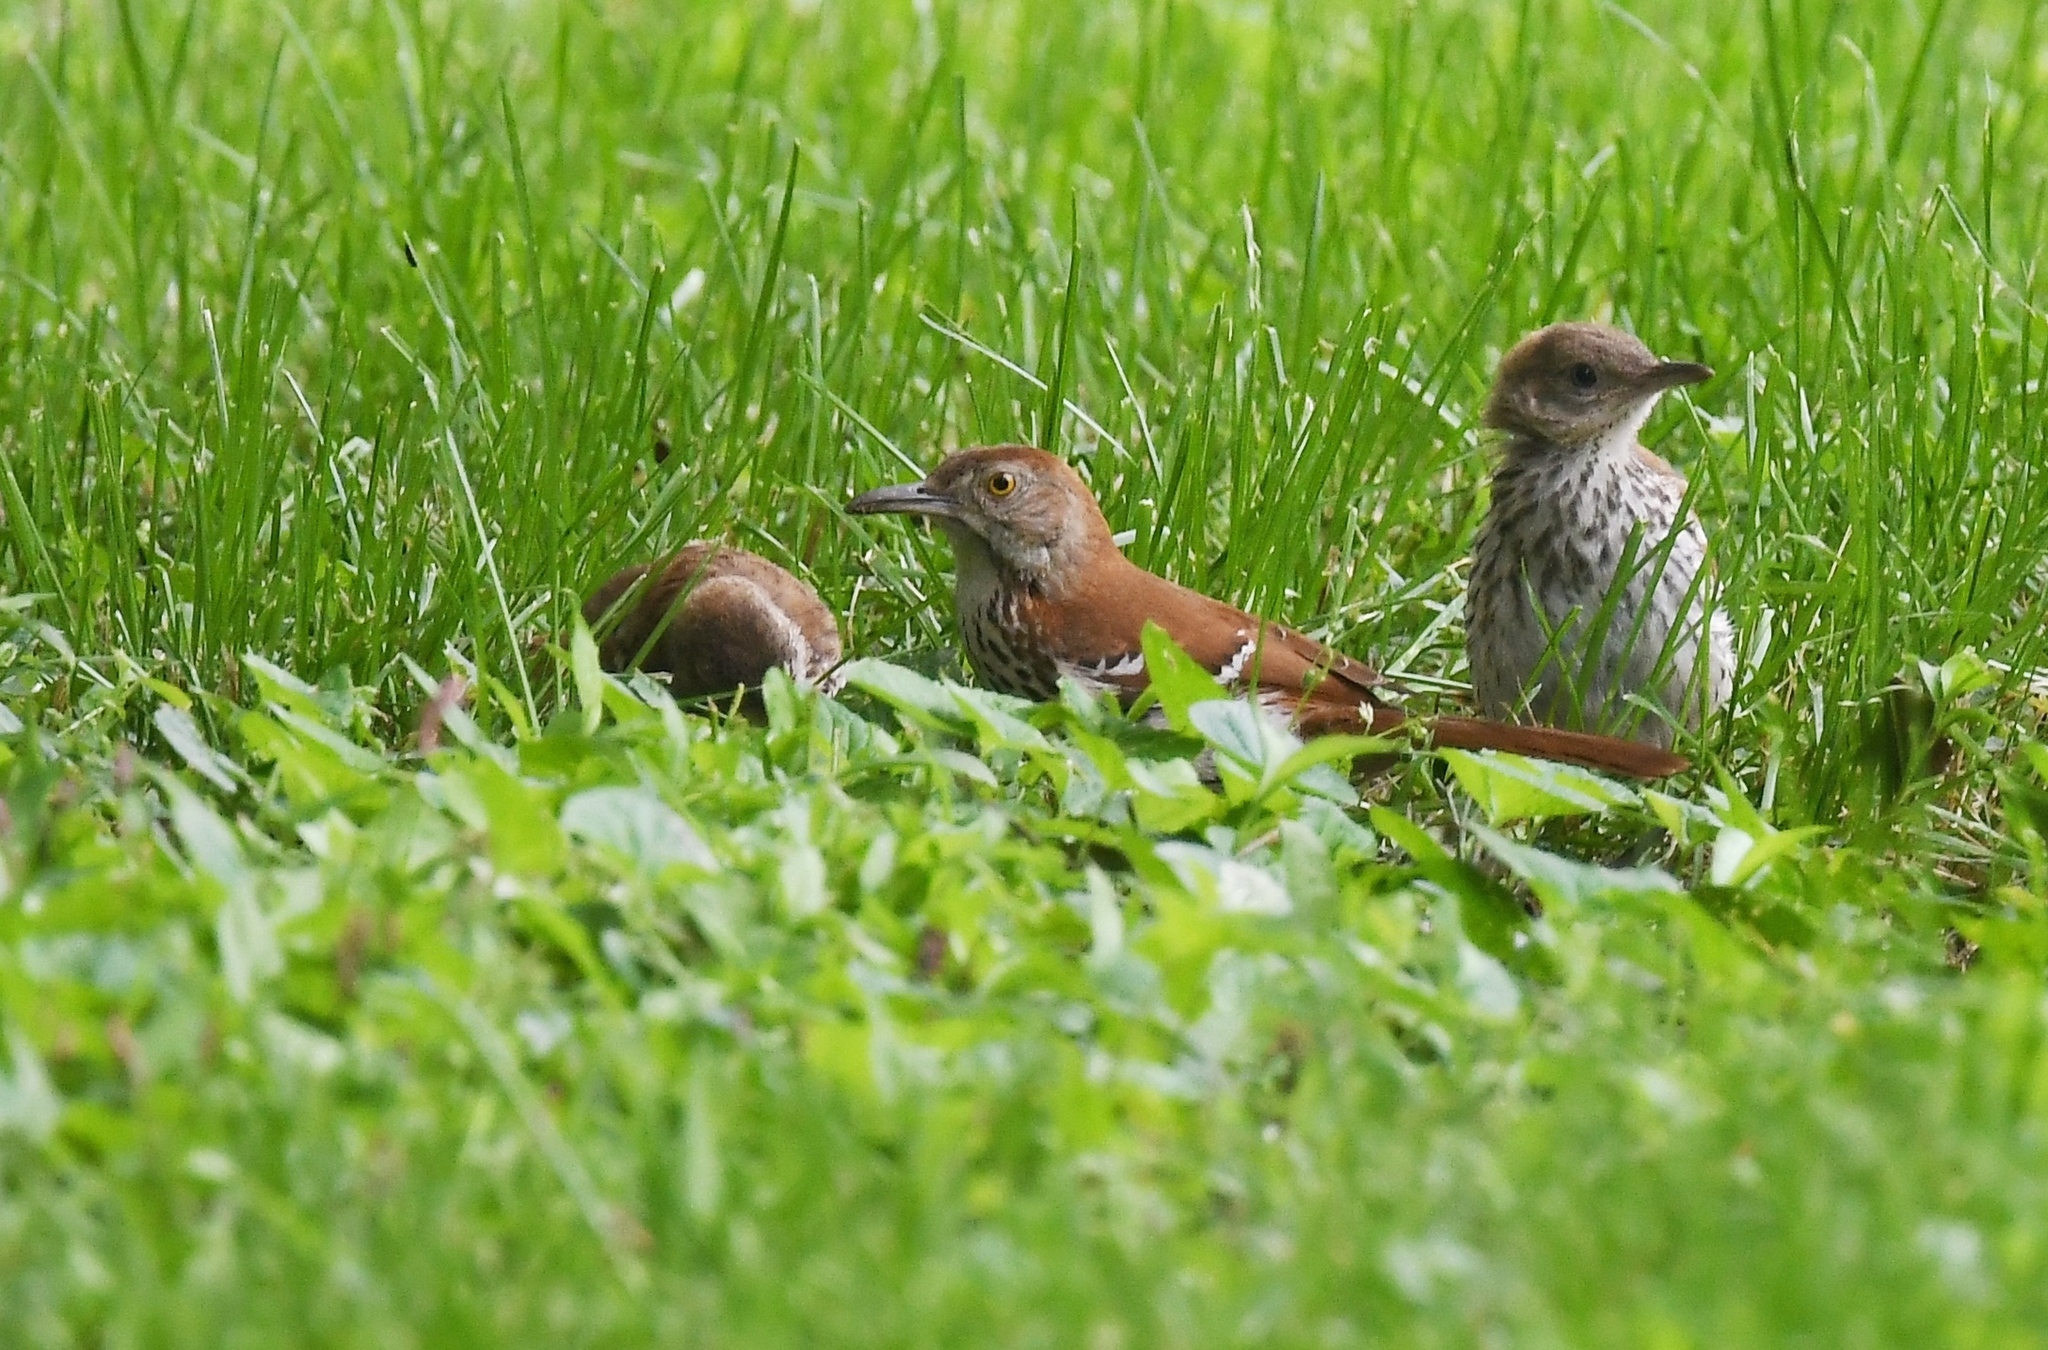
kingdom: Animalia
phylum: Chordata
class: Aves
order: Passeriformes
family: Mimidae
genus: Toxostoma
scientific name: Toxostoma rufum
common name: Brown thrasher
